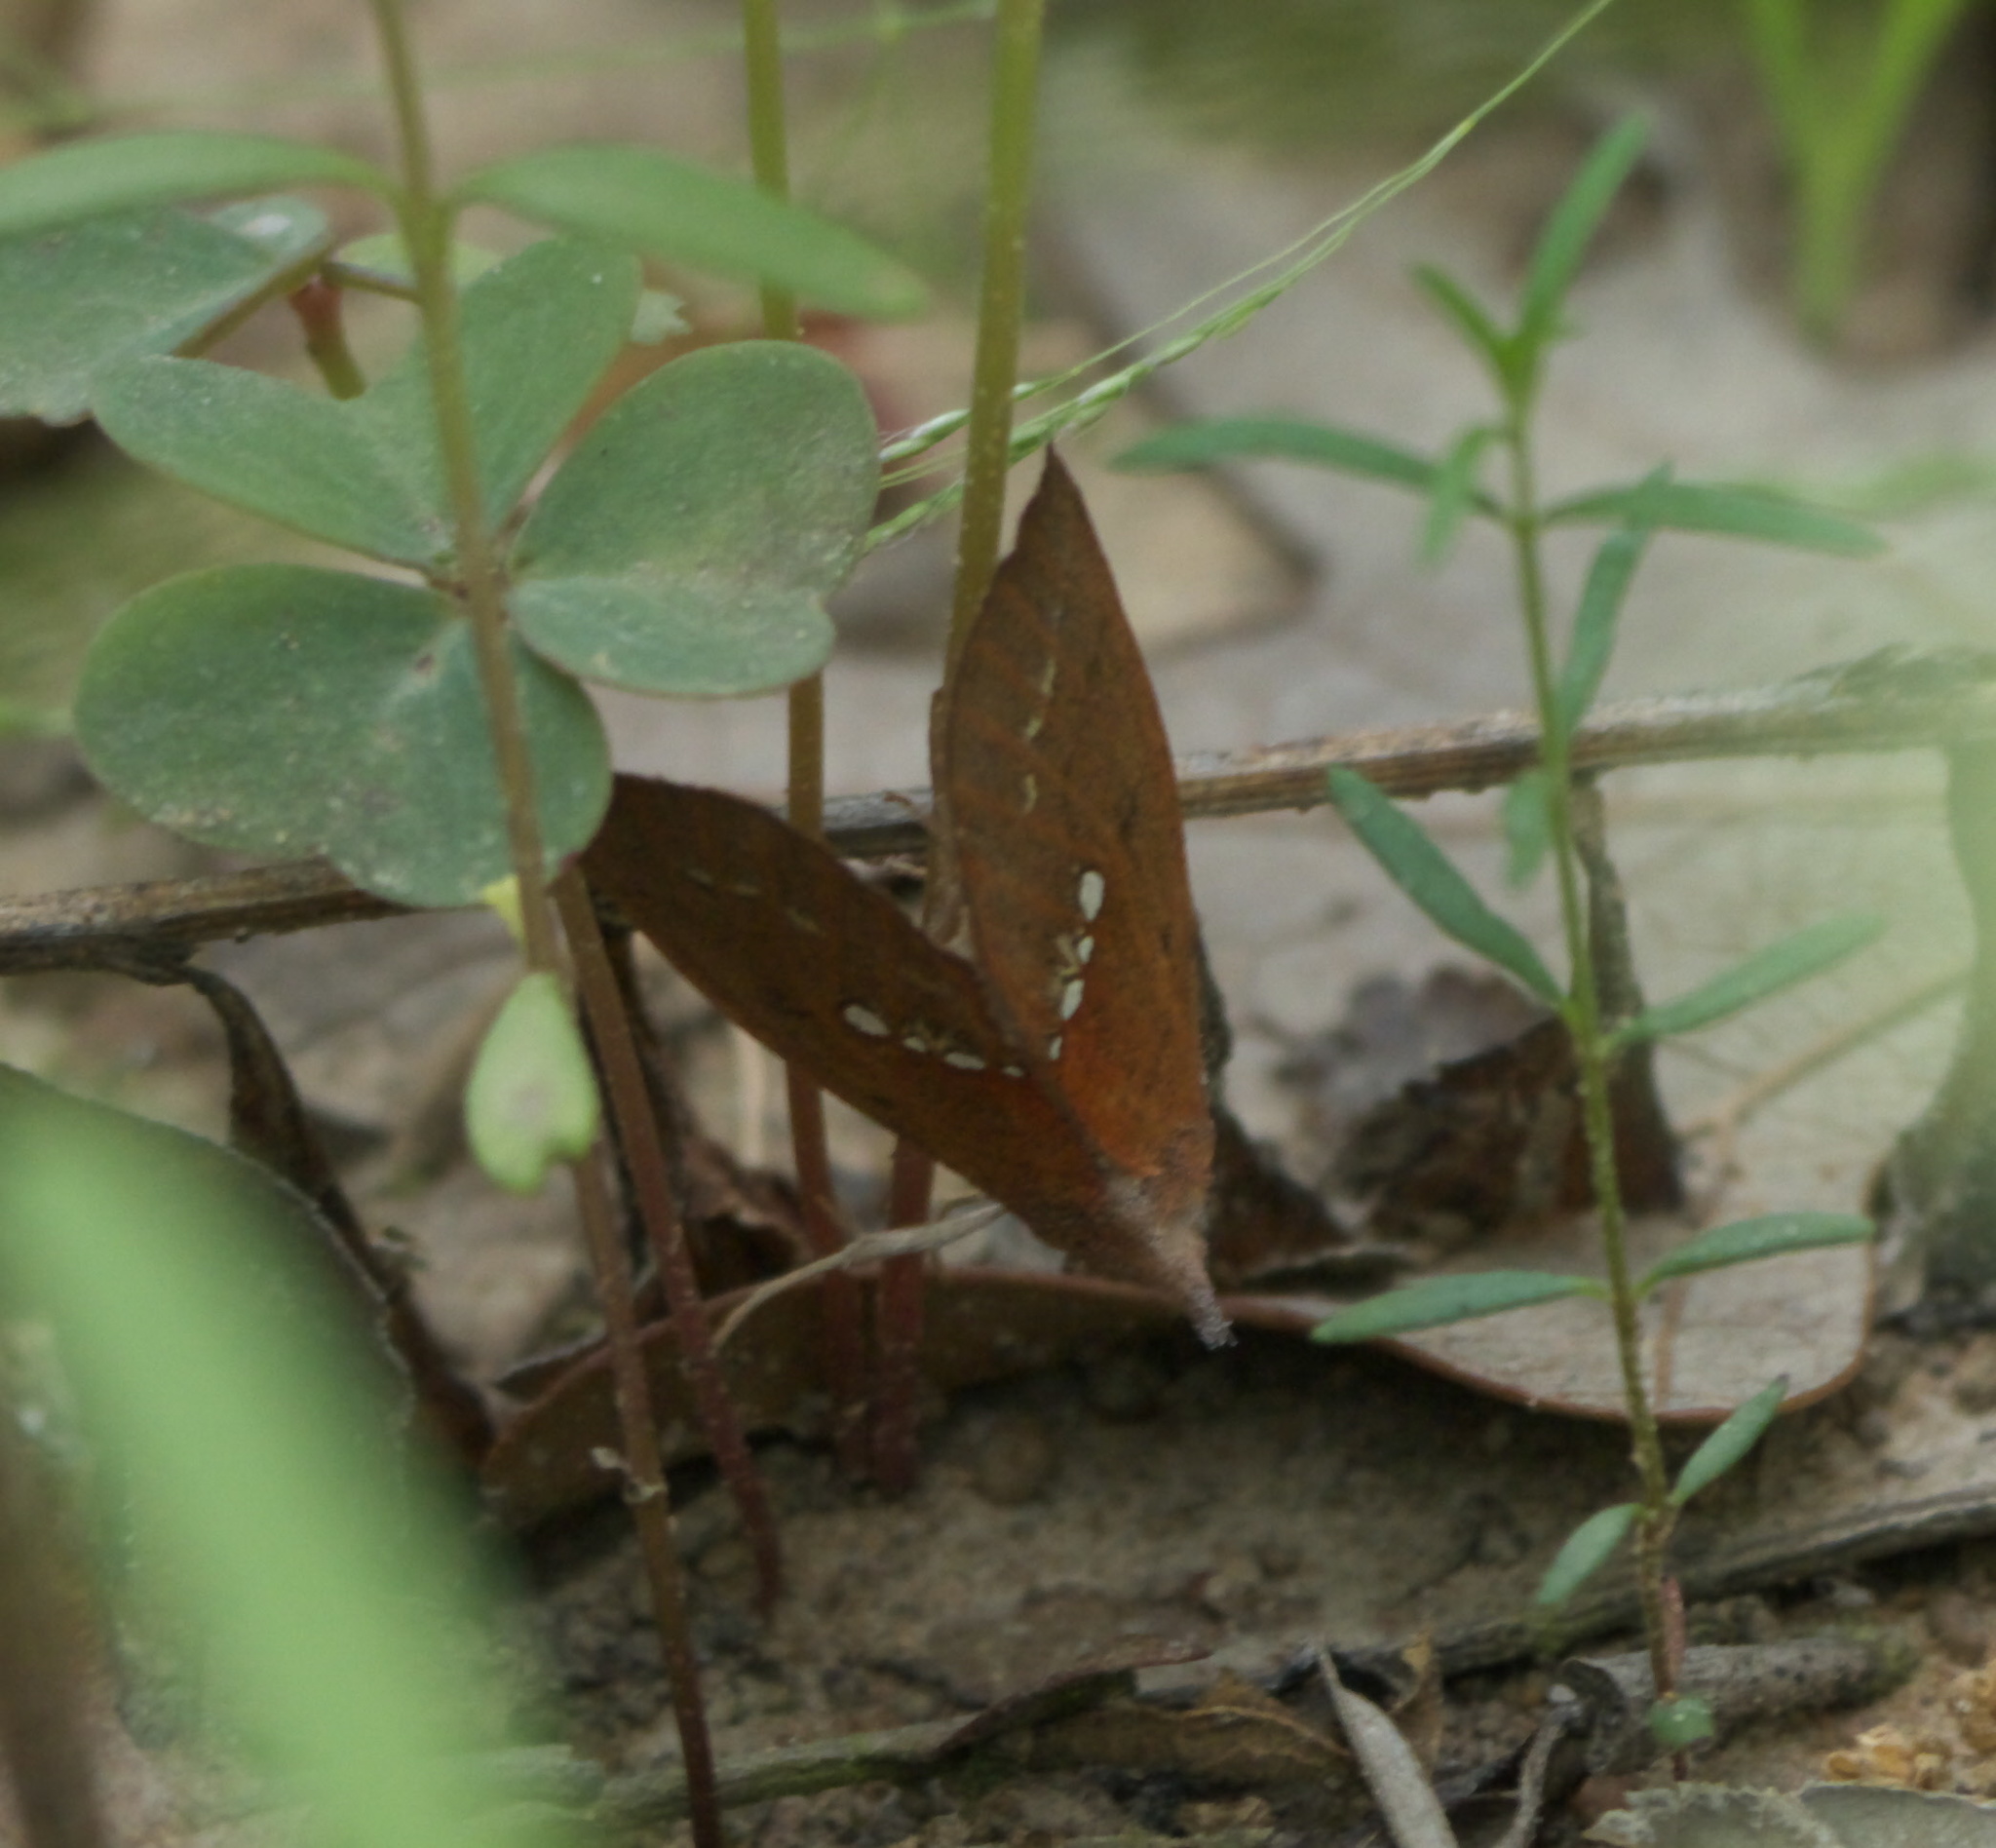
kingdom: Animalia
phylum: Arthropoda
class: Insecta
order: Lepidoptera
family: Erebidae
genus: Hypsoropha
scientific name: Hypsoropha monilis
